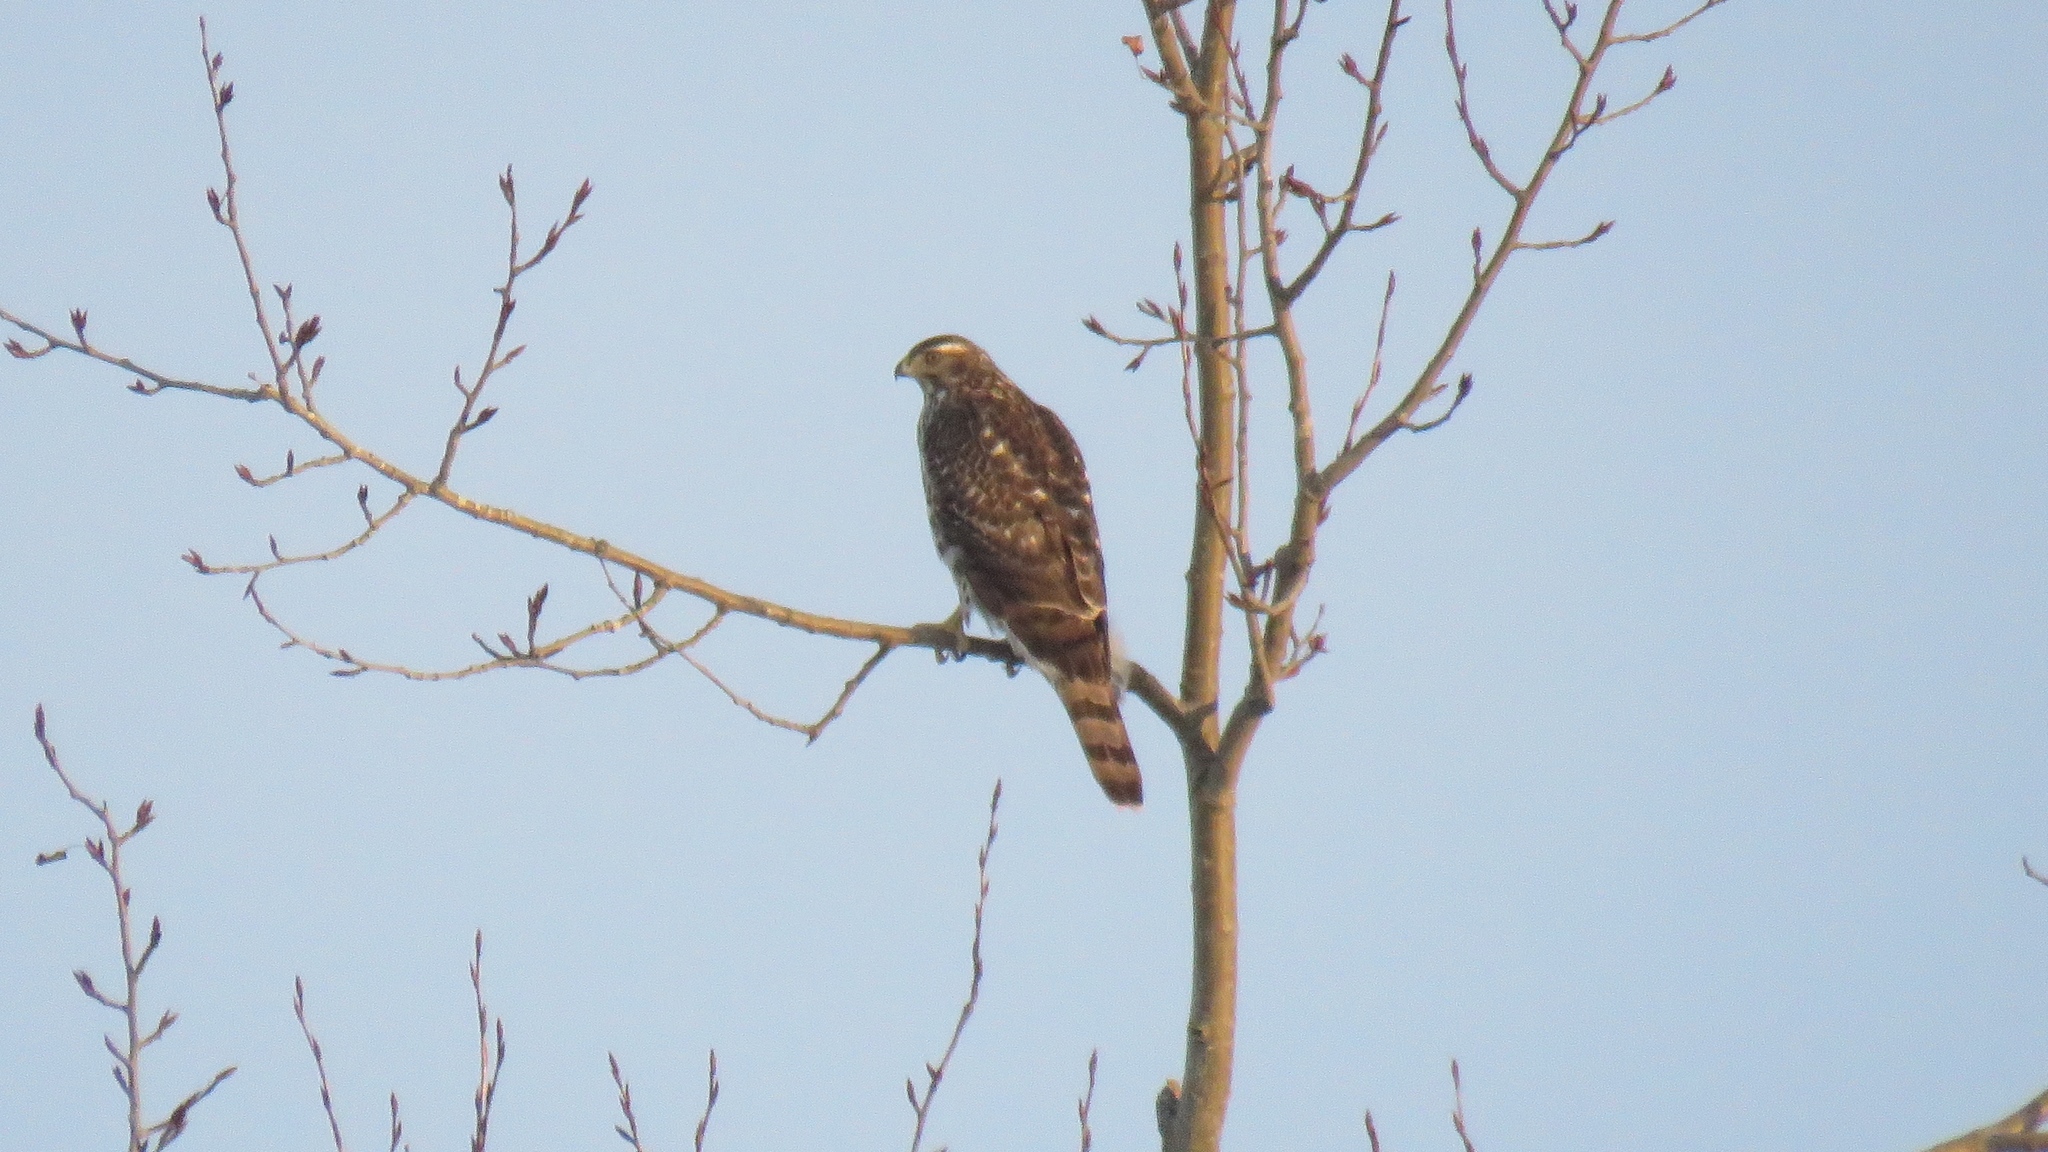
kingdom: Animalia
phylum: Chordata
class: Aves
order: Accipitriformes
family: Accipitridae
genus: Accipiter
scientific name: Accipiter gentilis
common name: Northern goshawk
